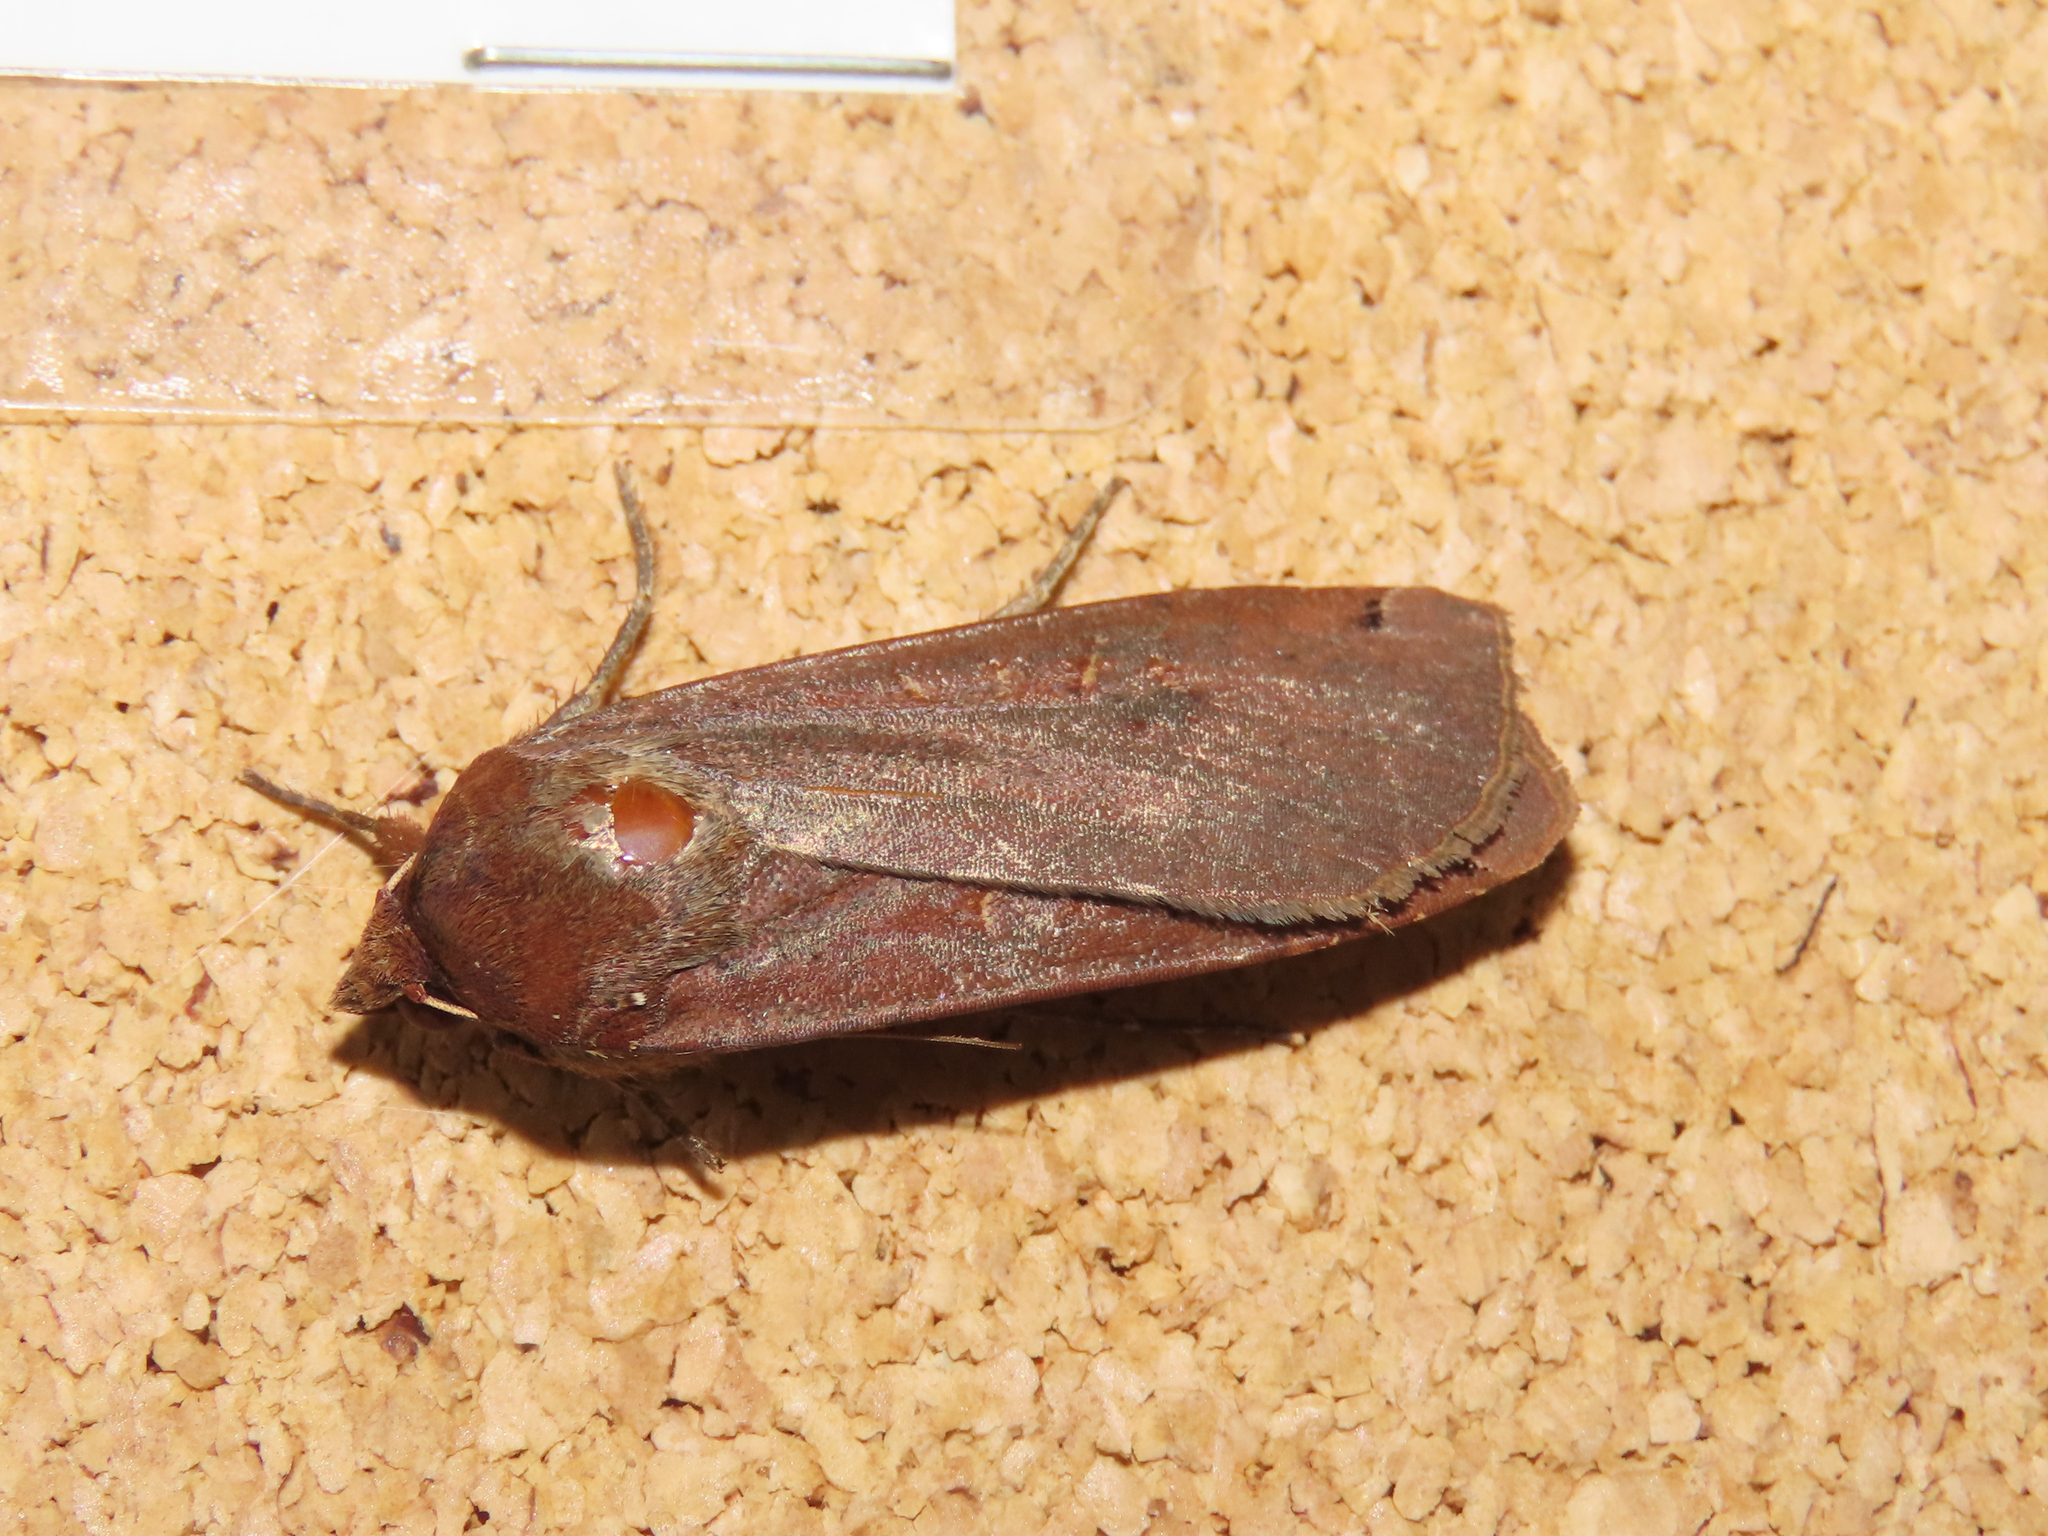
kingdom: Animalia
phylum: Arthropoda
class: Insecta
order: Lepidoptera
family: Noctuidae
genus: Noctua
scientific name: Noctua pronuba
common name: Large yellow underwing
